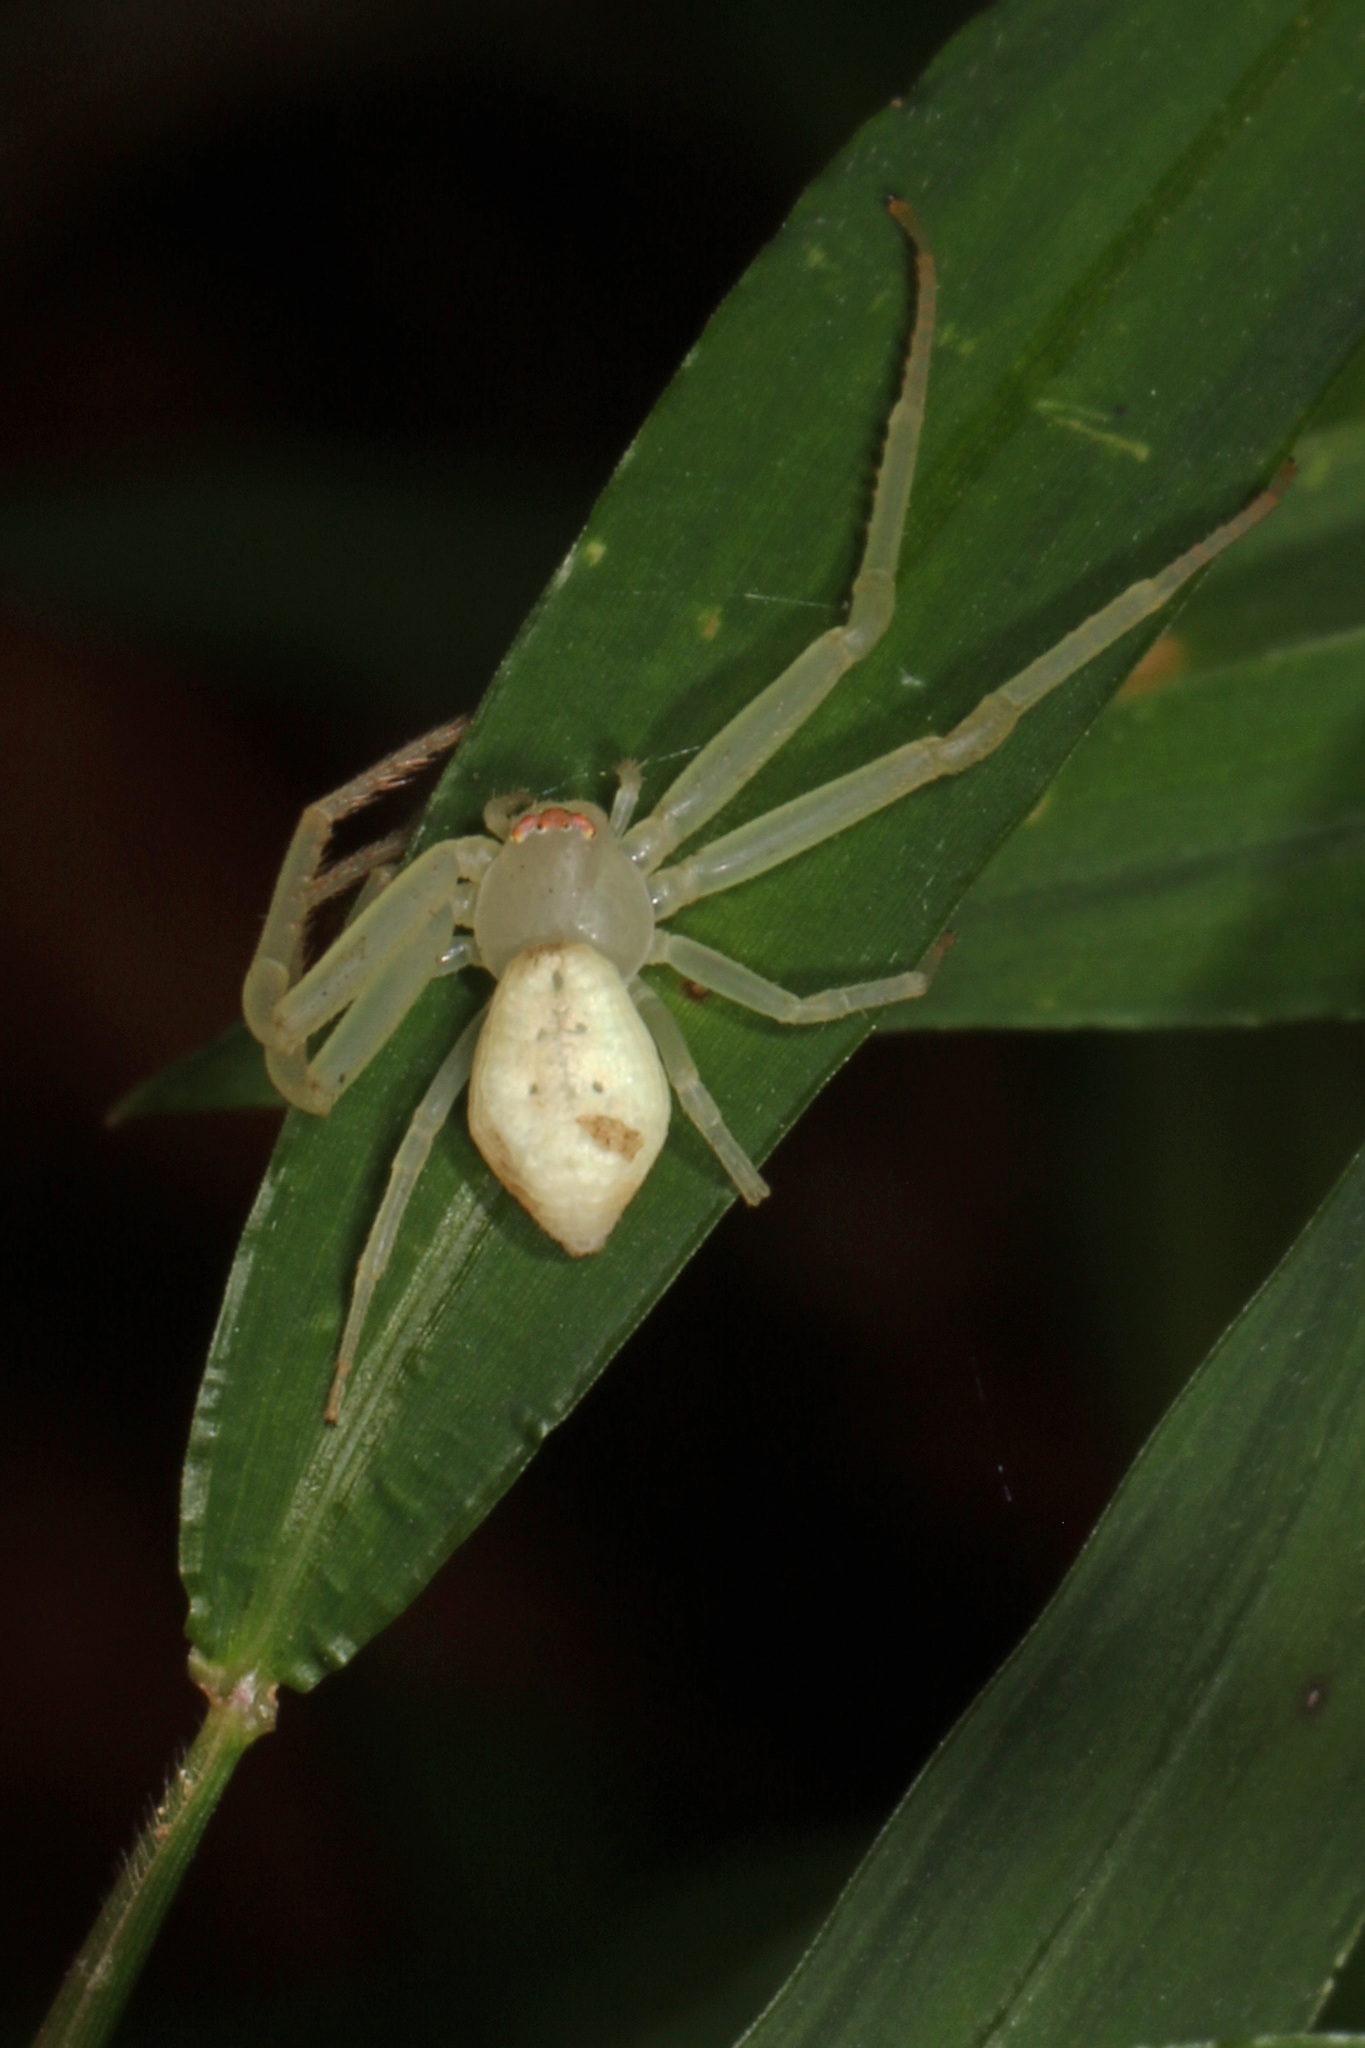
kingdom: Animalia
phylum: Arthropoda
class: Arachnida
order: Araneae
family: Thomisidae
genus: Misumessus
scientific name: Misumessus oblongus
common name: American green crab spider
